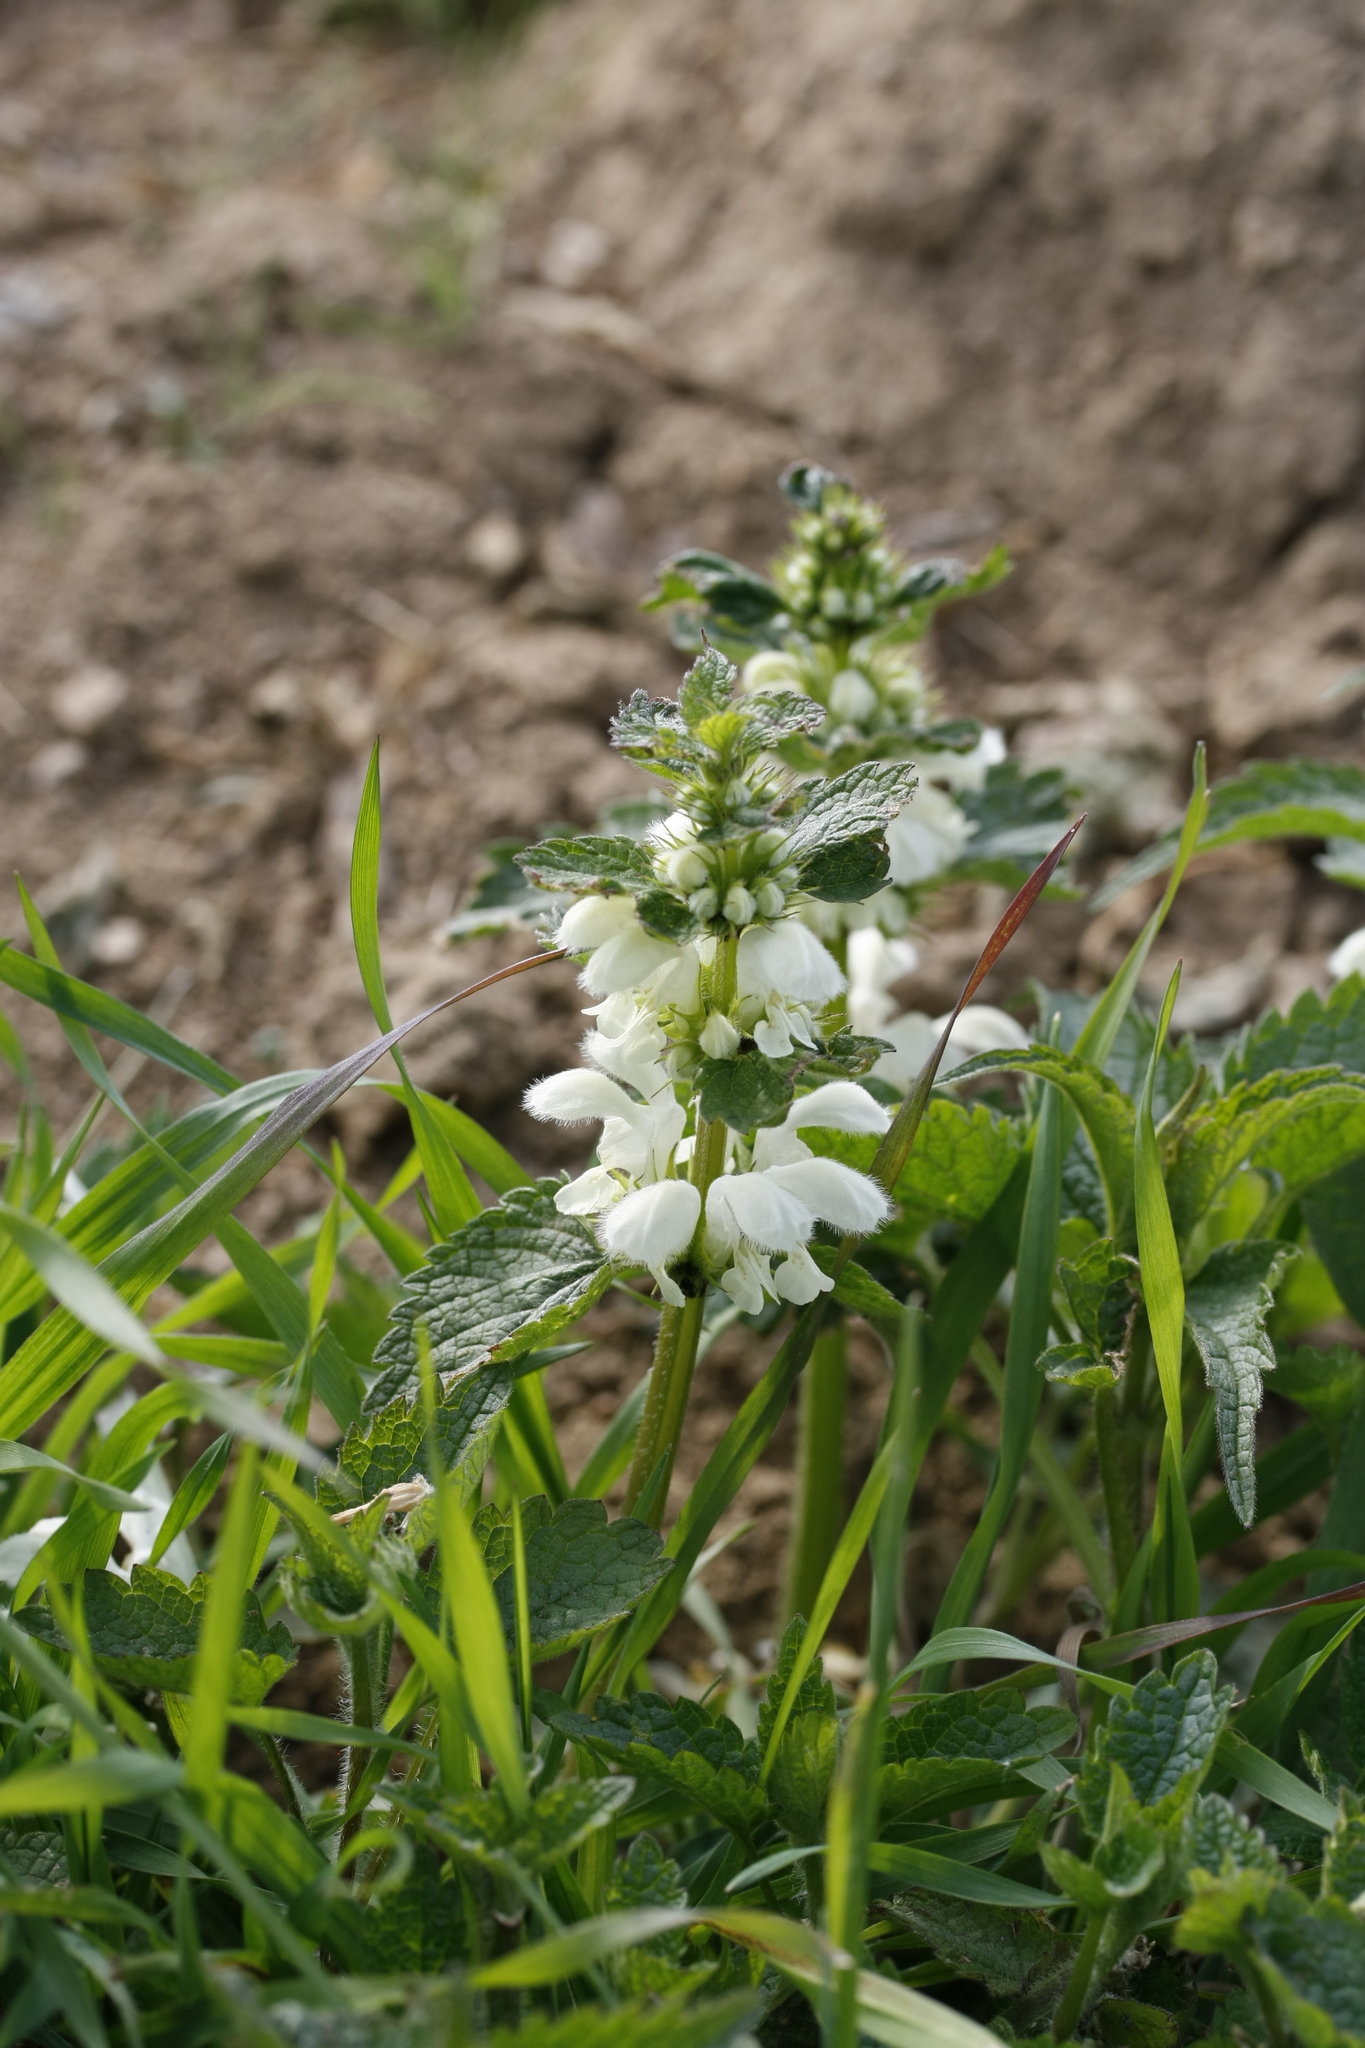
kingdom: Plantae
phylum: Tracheophyta
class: Magnoliopsida
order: Lamiales
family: Lamiaceae
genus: Lamium
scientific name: Lamium album
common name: White dead-nettle
